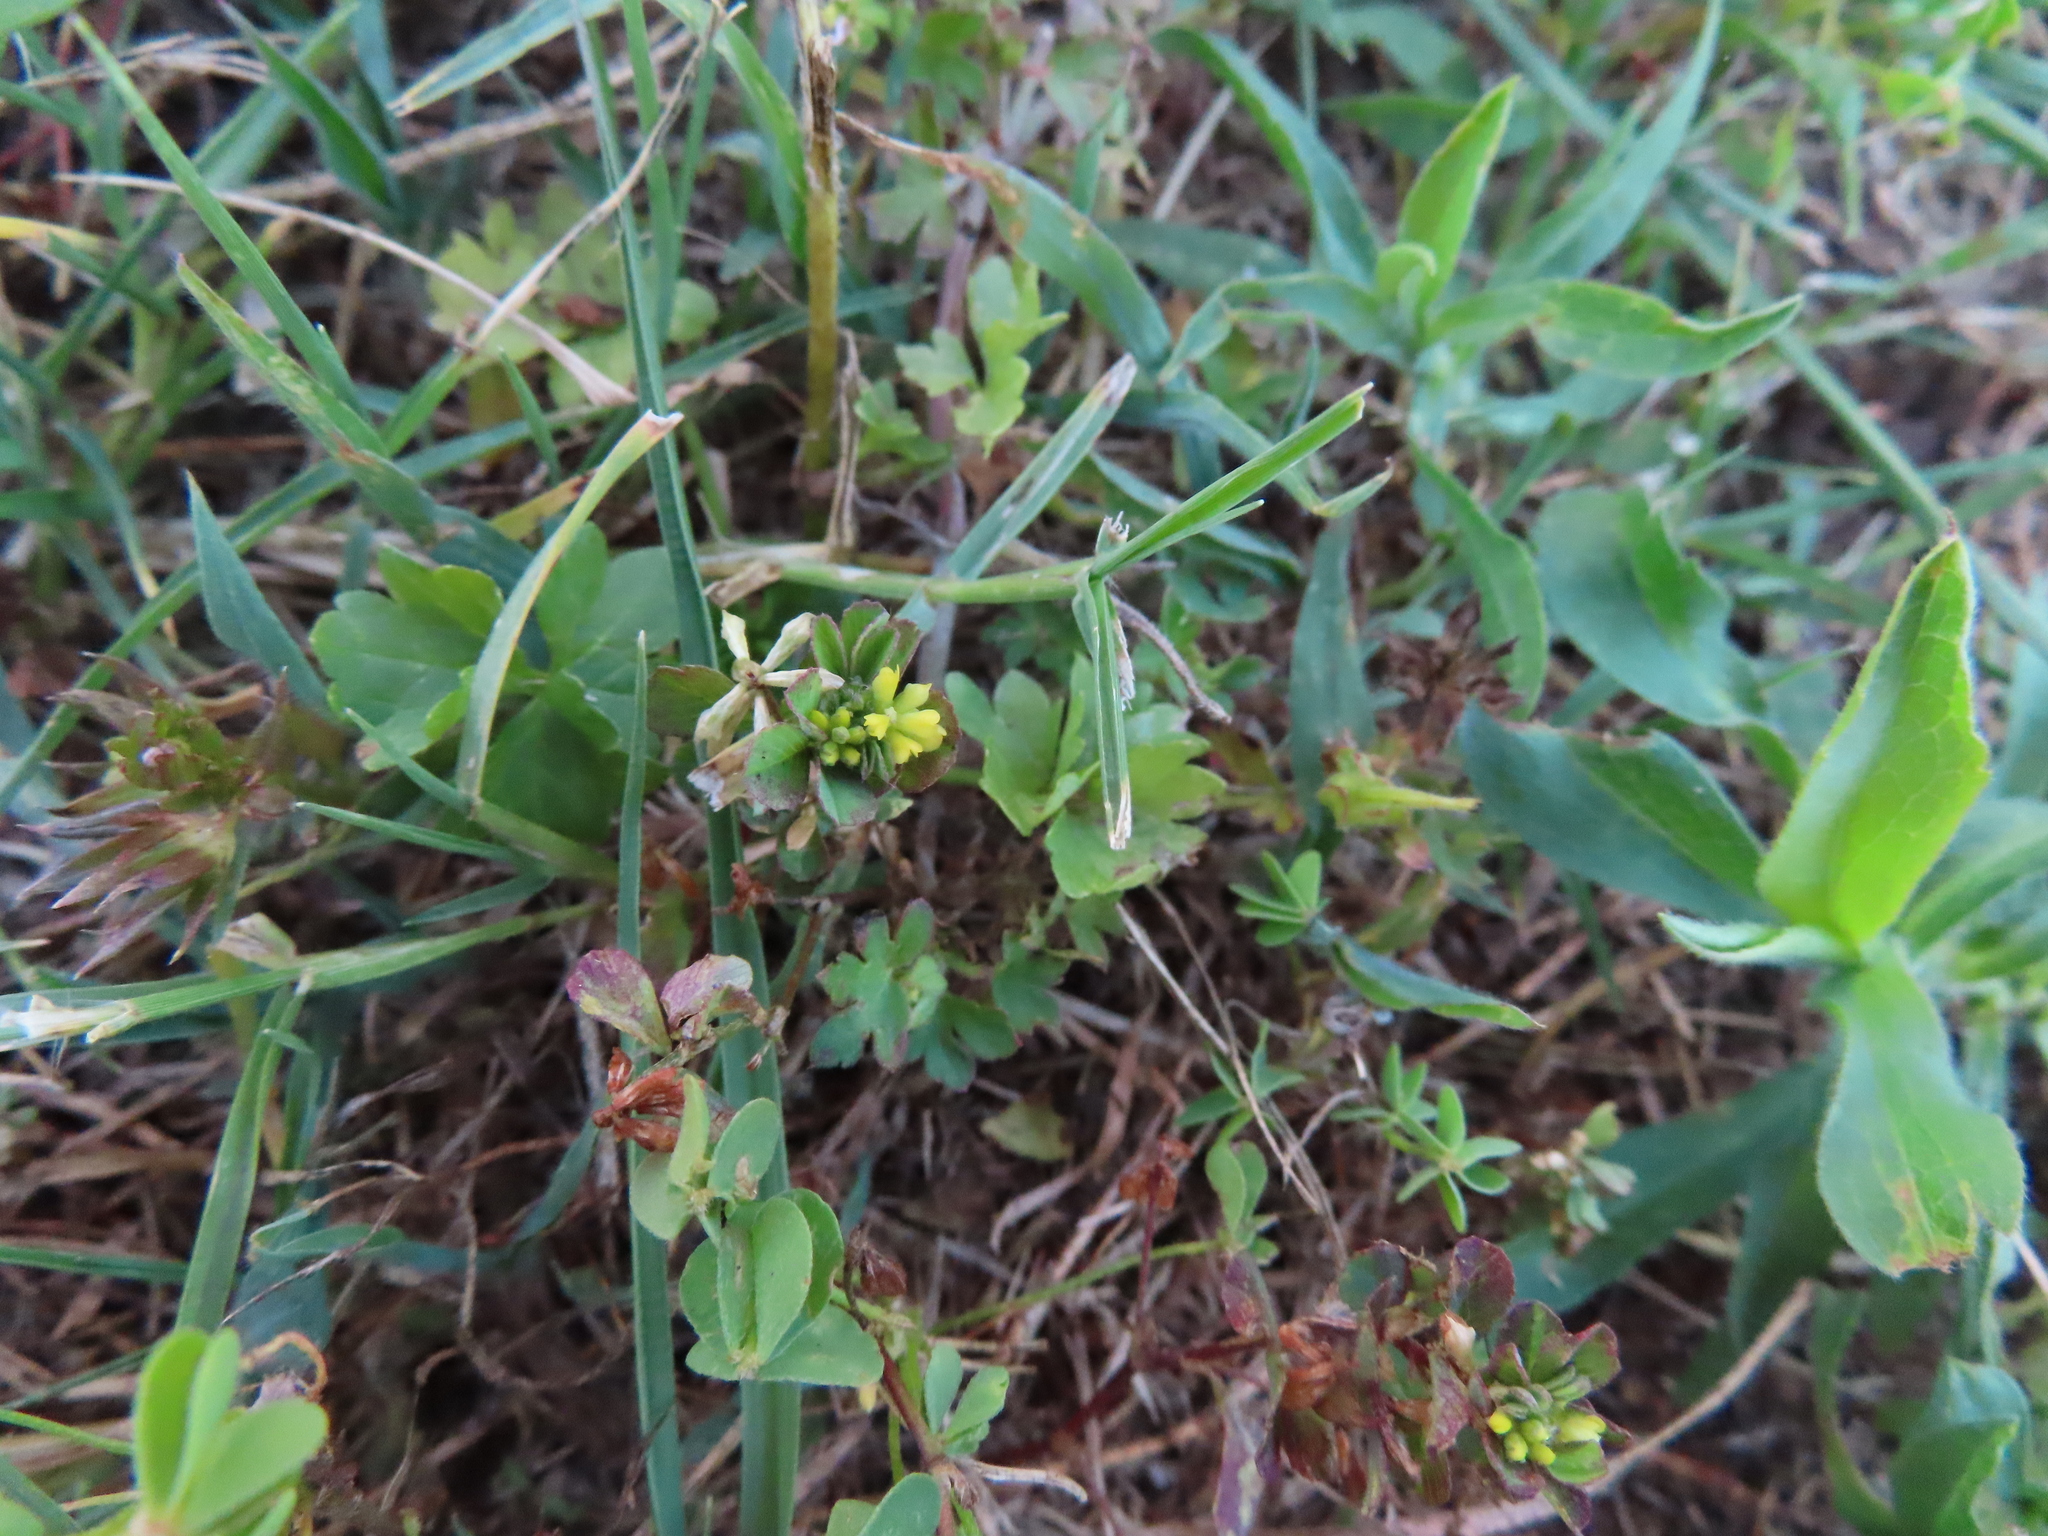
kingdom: Plantae
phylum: Tracheophyta
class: Magnoliopsida
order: Fabales
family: Fabaceae
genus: Trifolium
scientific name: Trifolium dubium
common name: Suckling clover
